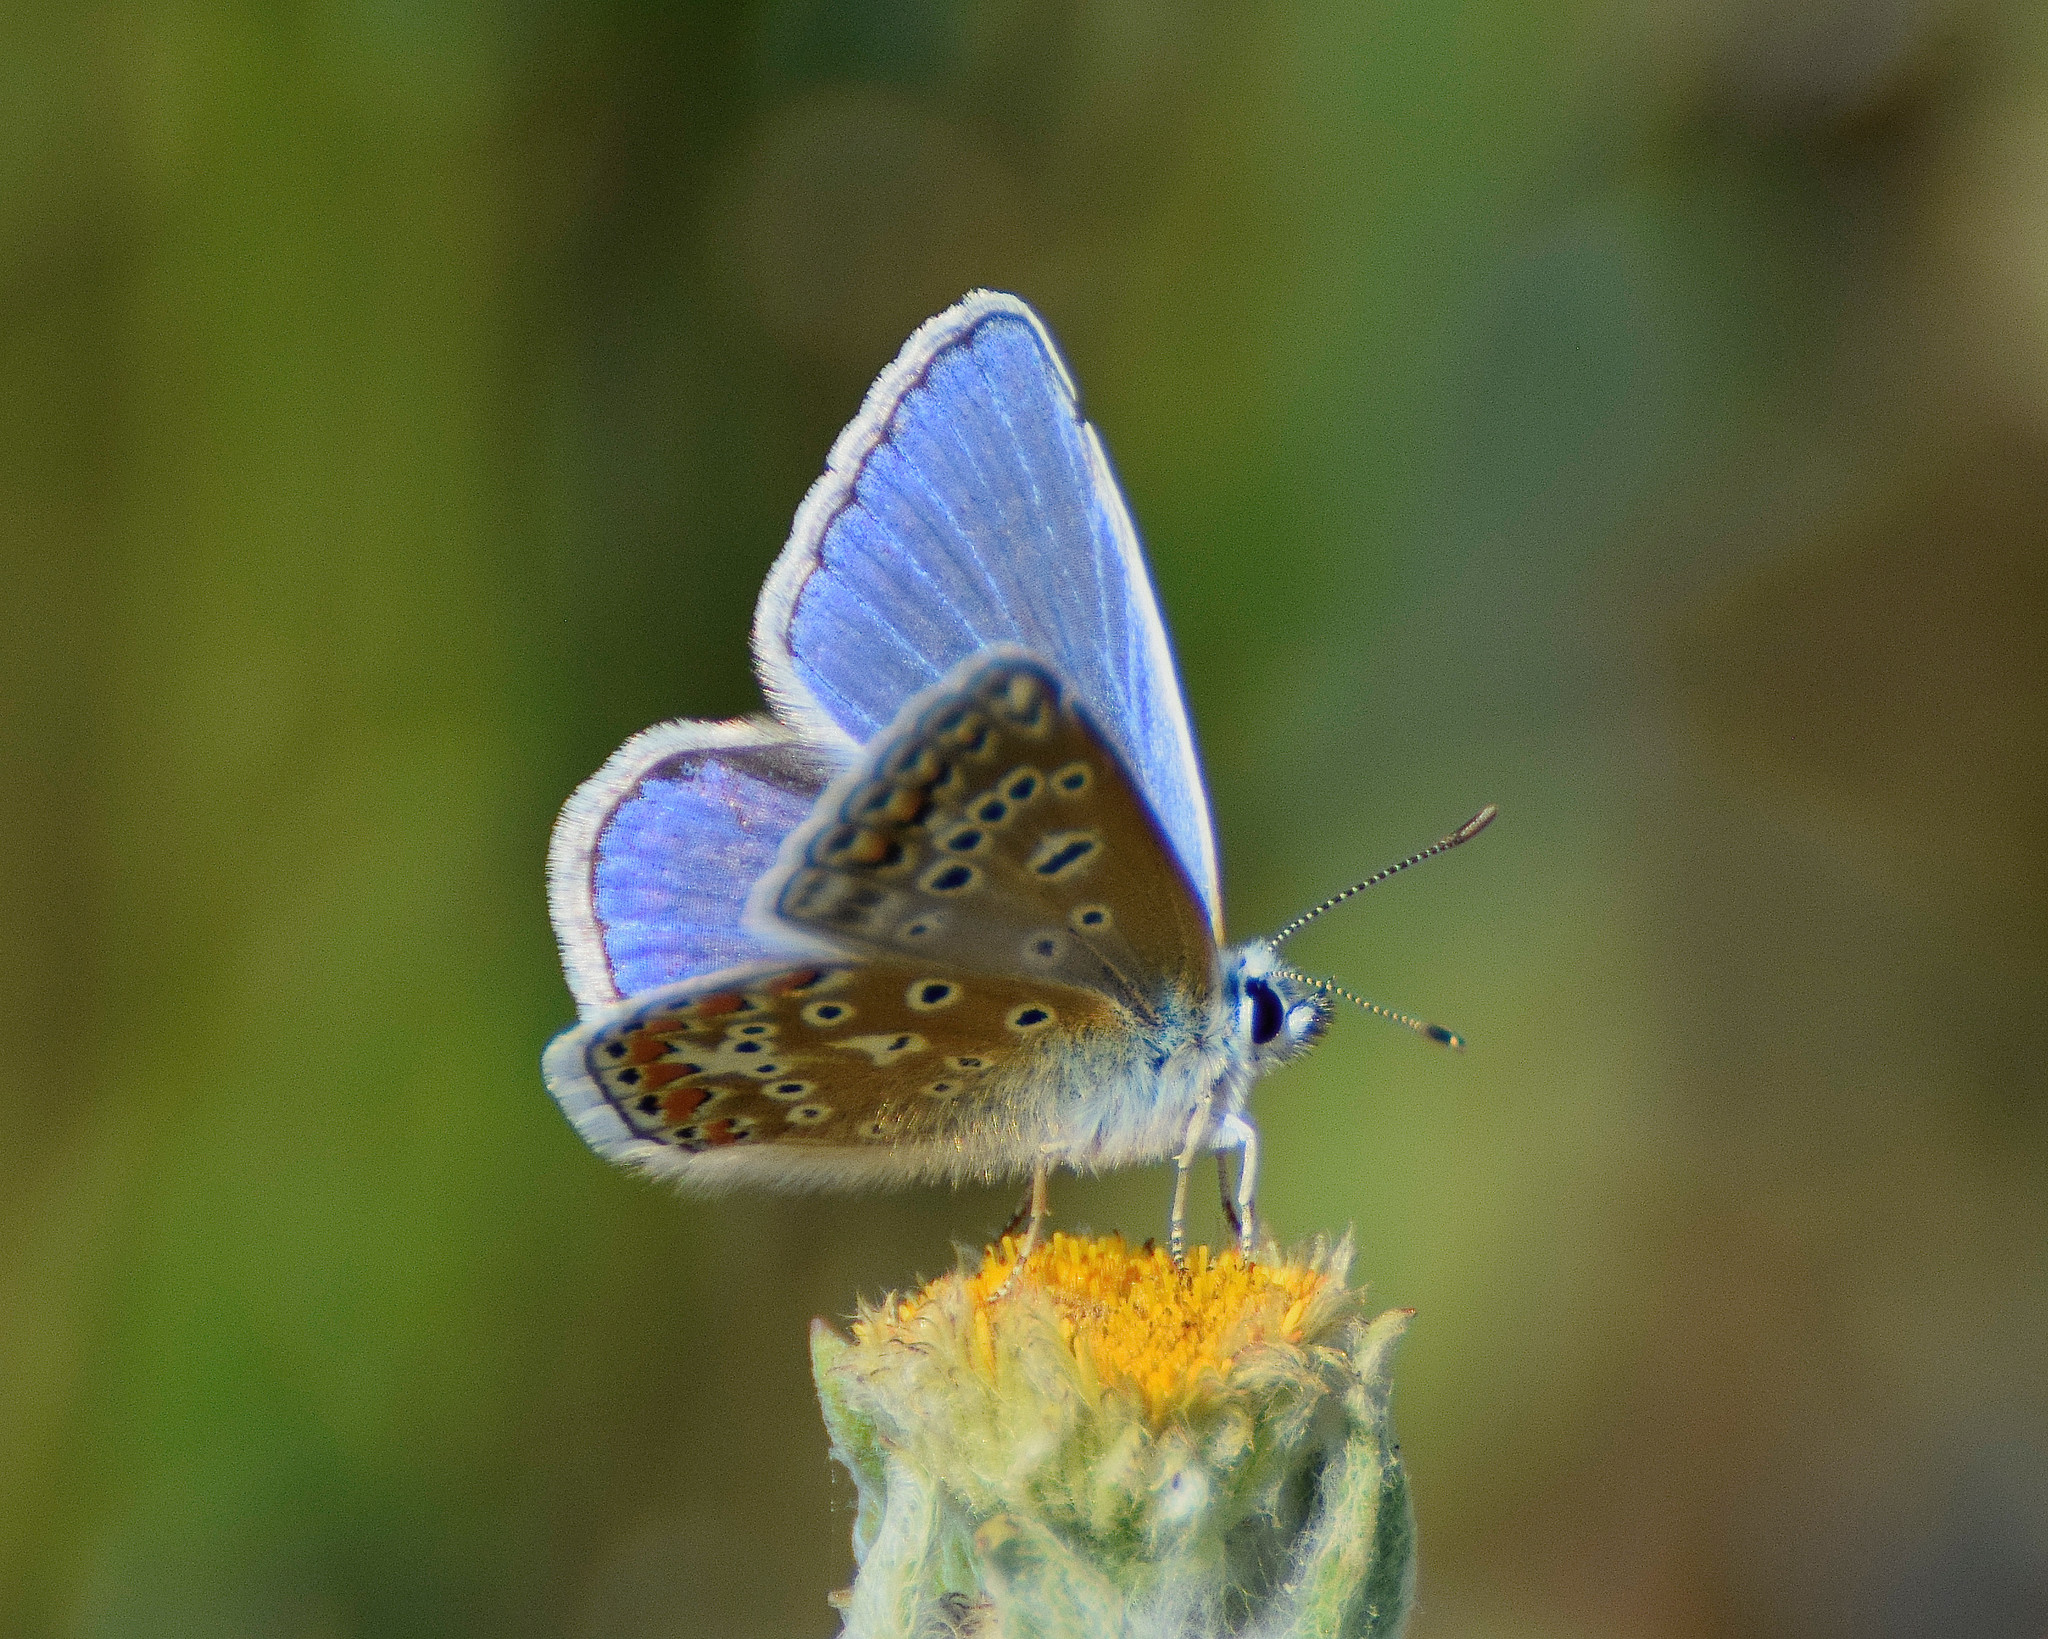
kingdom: Animalia
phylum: Arthropoda
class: Insecta
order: Lepidoptera
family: Lycaenidae
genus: Polyommatus
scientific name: Polyommatus icarus
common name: Common blue
